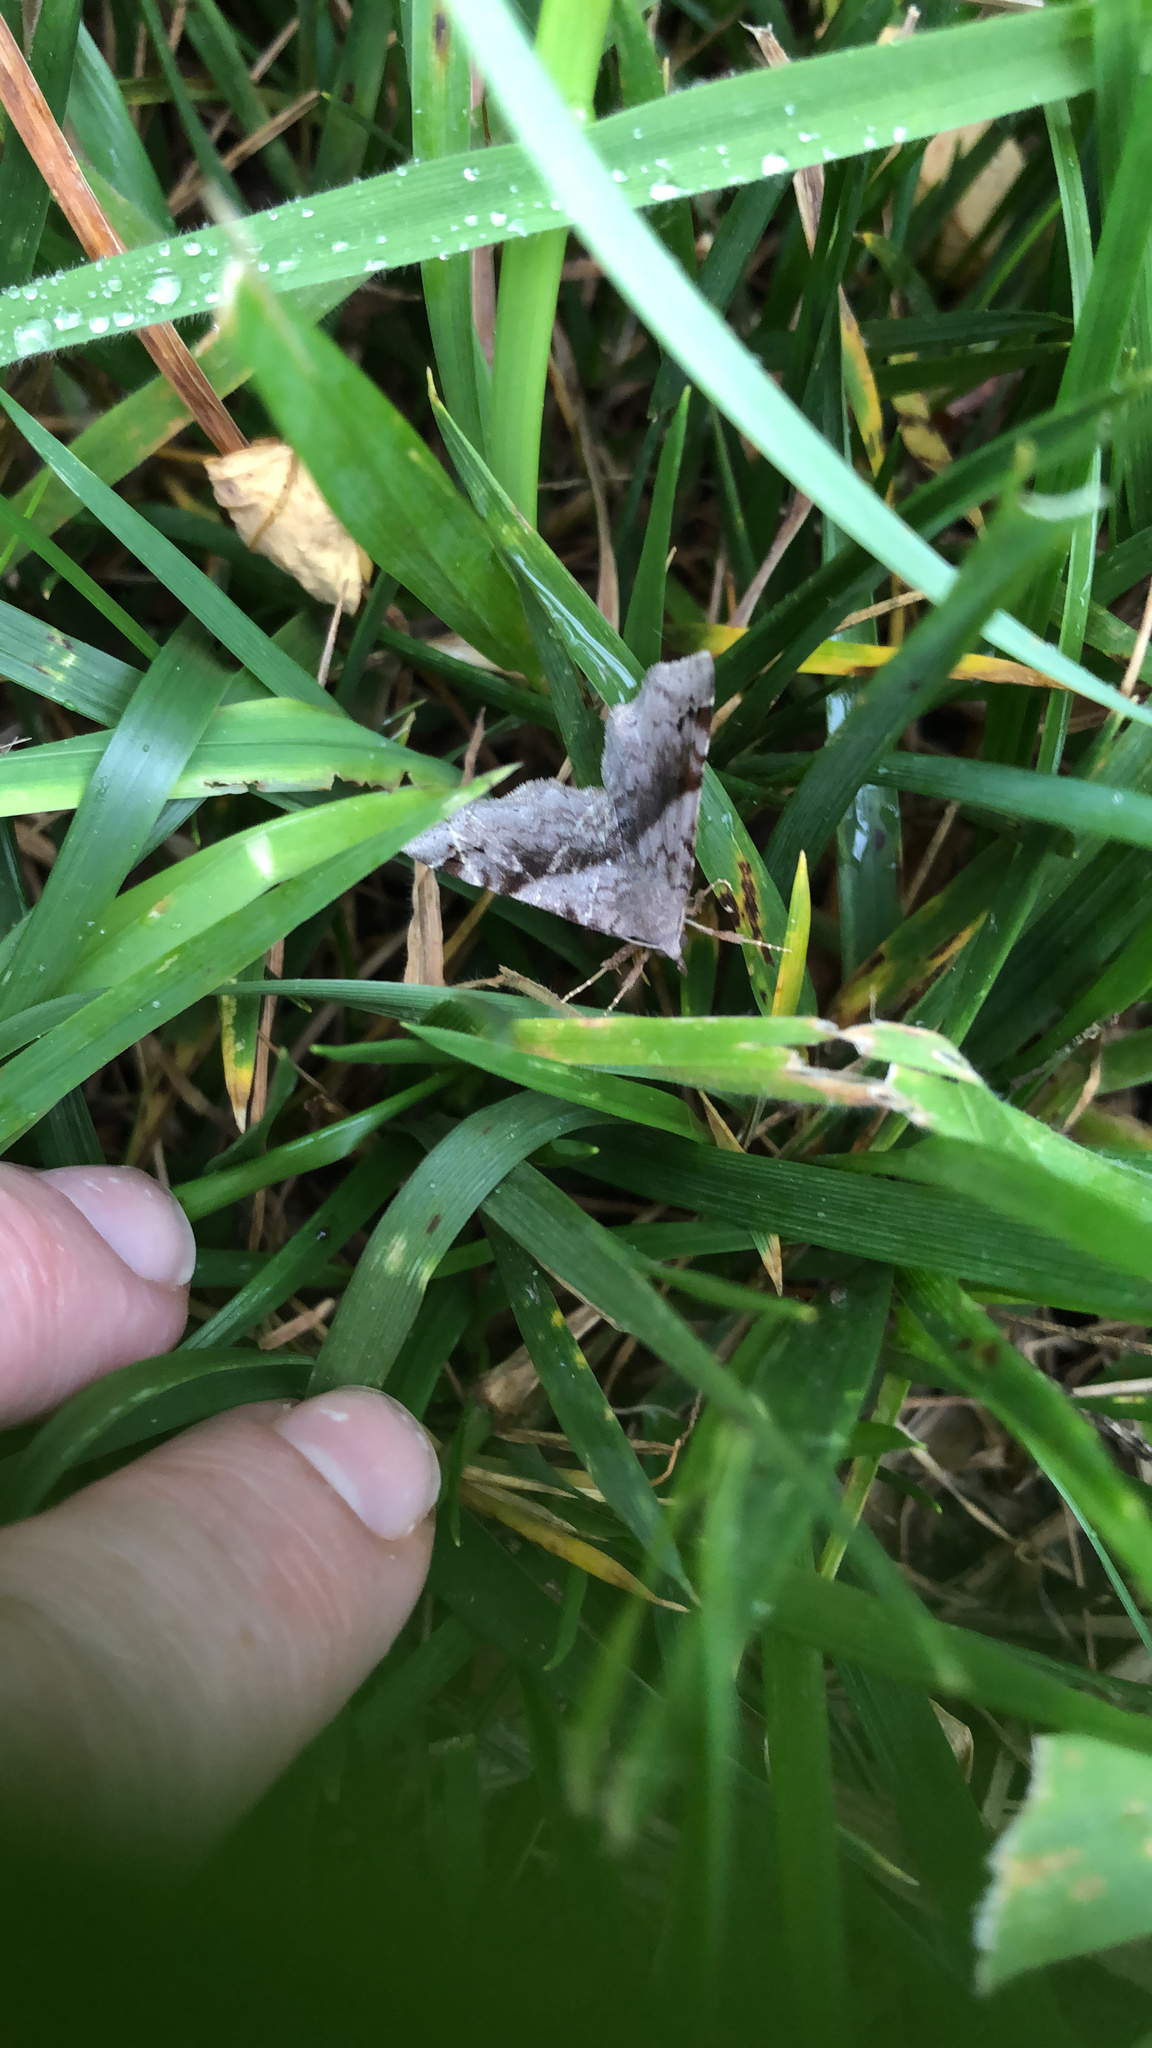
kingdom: Animalia
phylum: Arthropoda
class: Insecta
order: Lepidoptera
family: Erebidae
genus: Spargaloma
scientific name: Spargaloma sexpunctata
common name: Six-spotted gray
